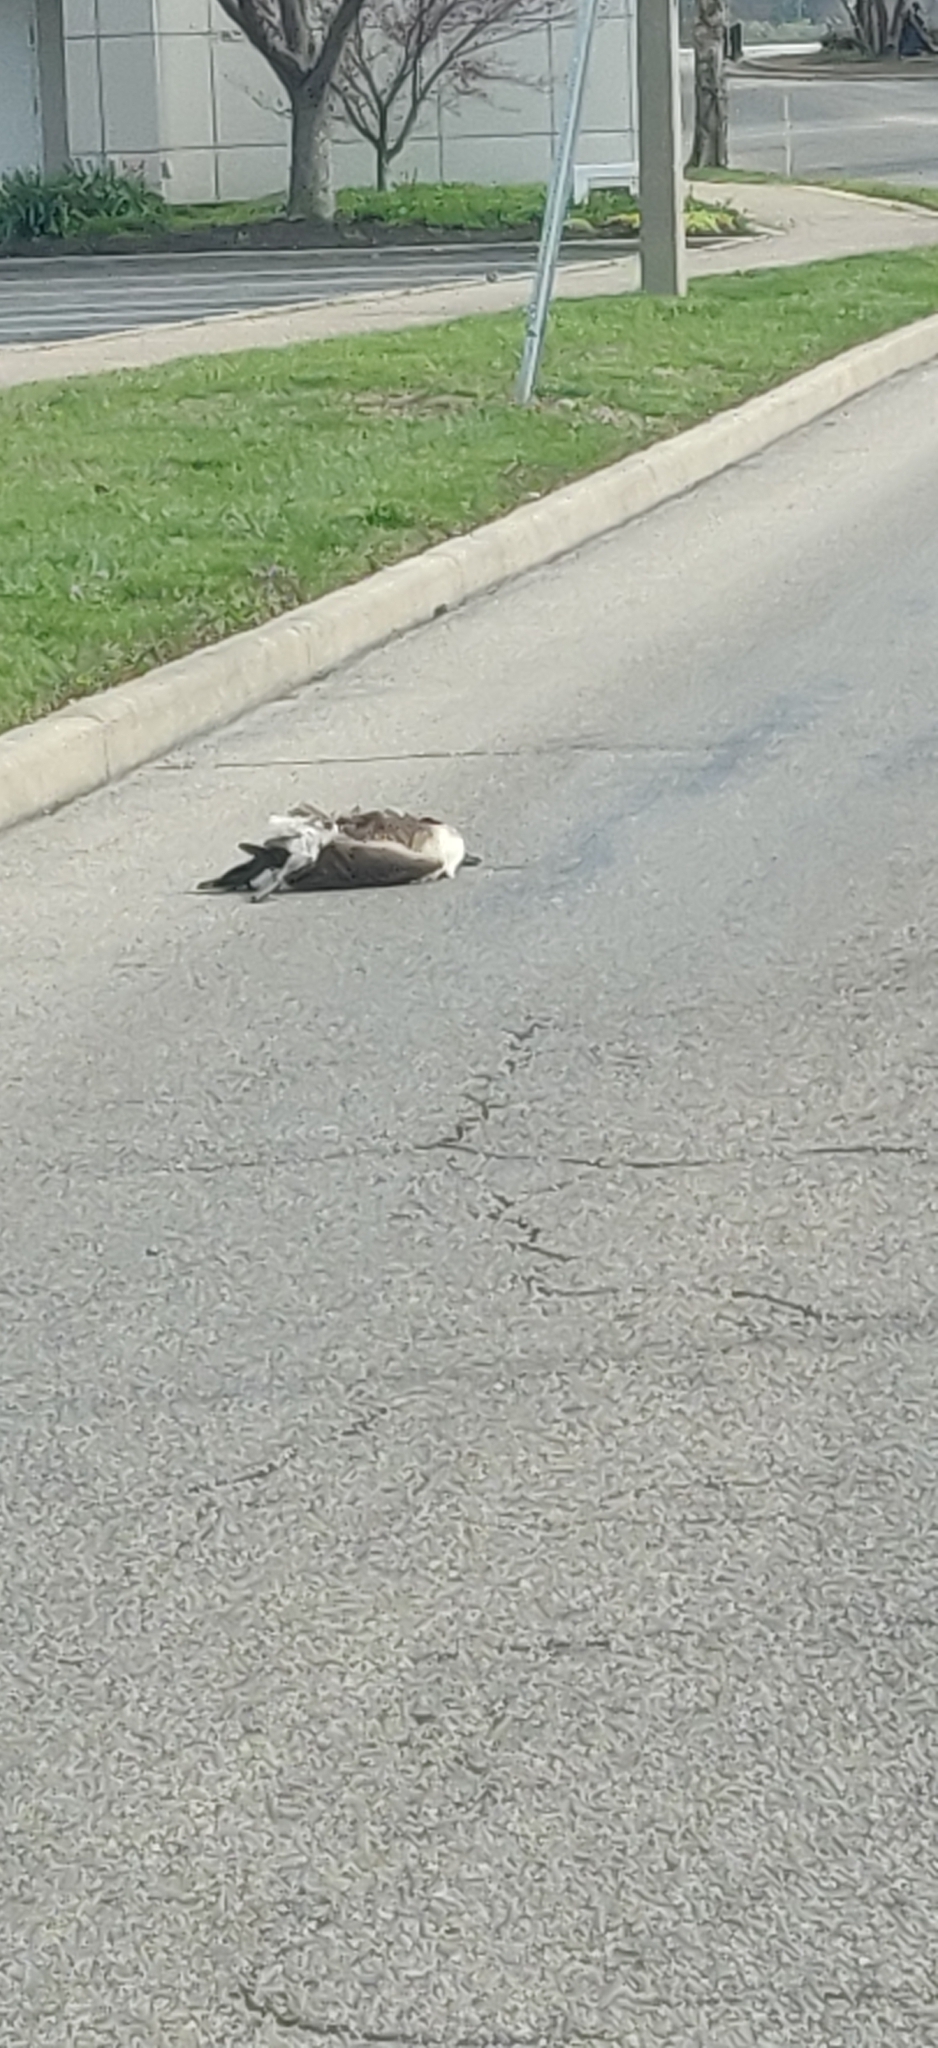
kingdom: Animalia
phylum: Chordata
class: Aves
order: Anseriformes
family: Anatidae
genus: Branta
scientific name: Branta canadensis
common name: Canada goose
